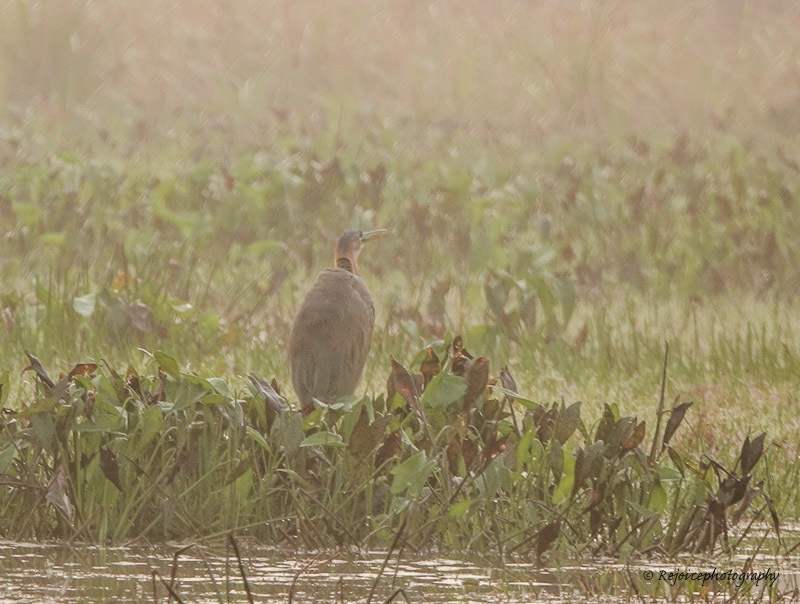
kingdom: Animalia
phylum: Chordata
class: Aves
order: Pelecaniformes
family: Ardeidae
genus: Ardea
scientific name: Ardea purpurea
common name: Purple heron
